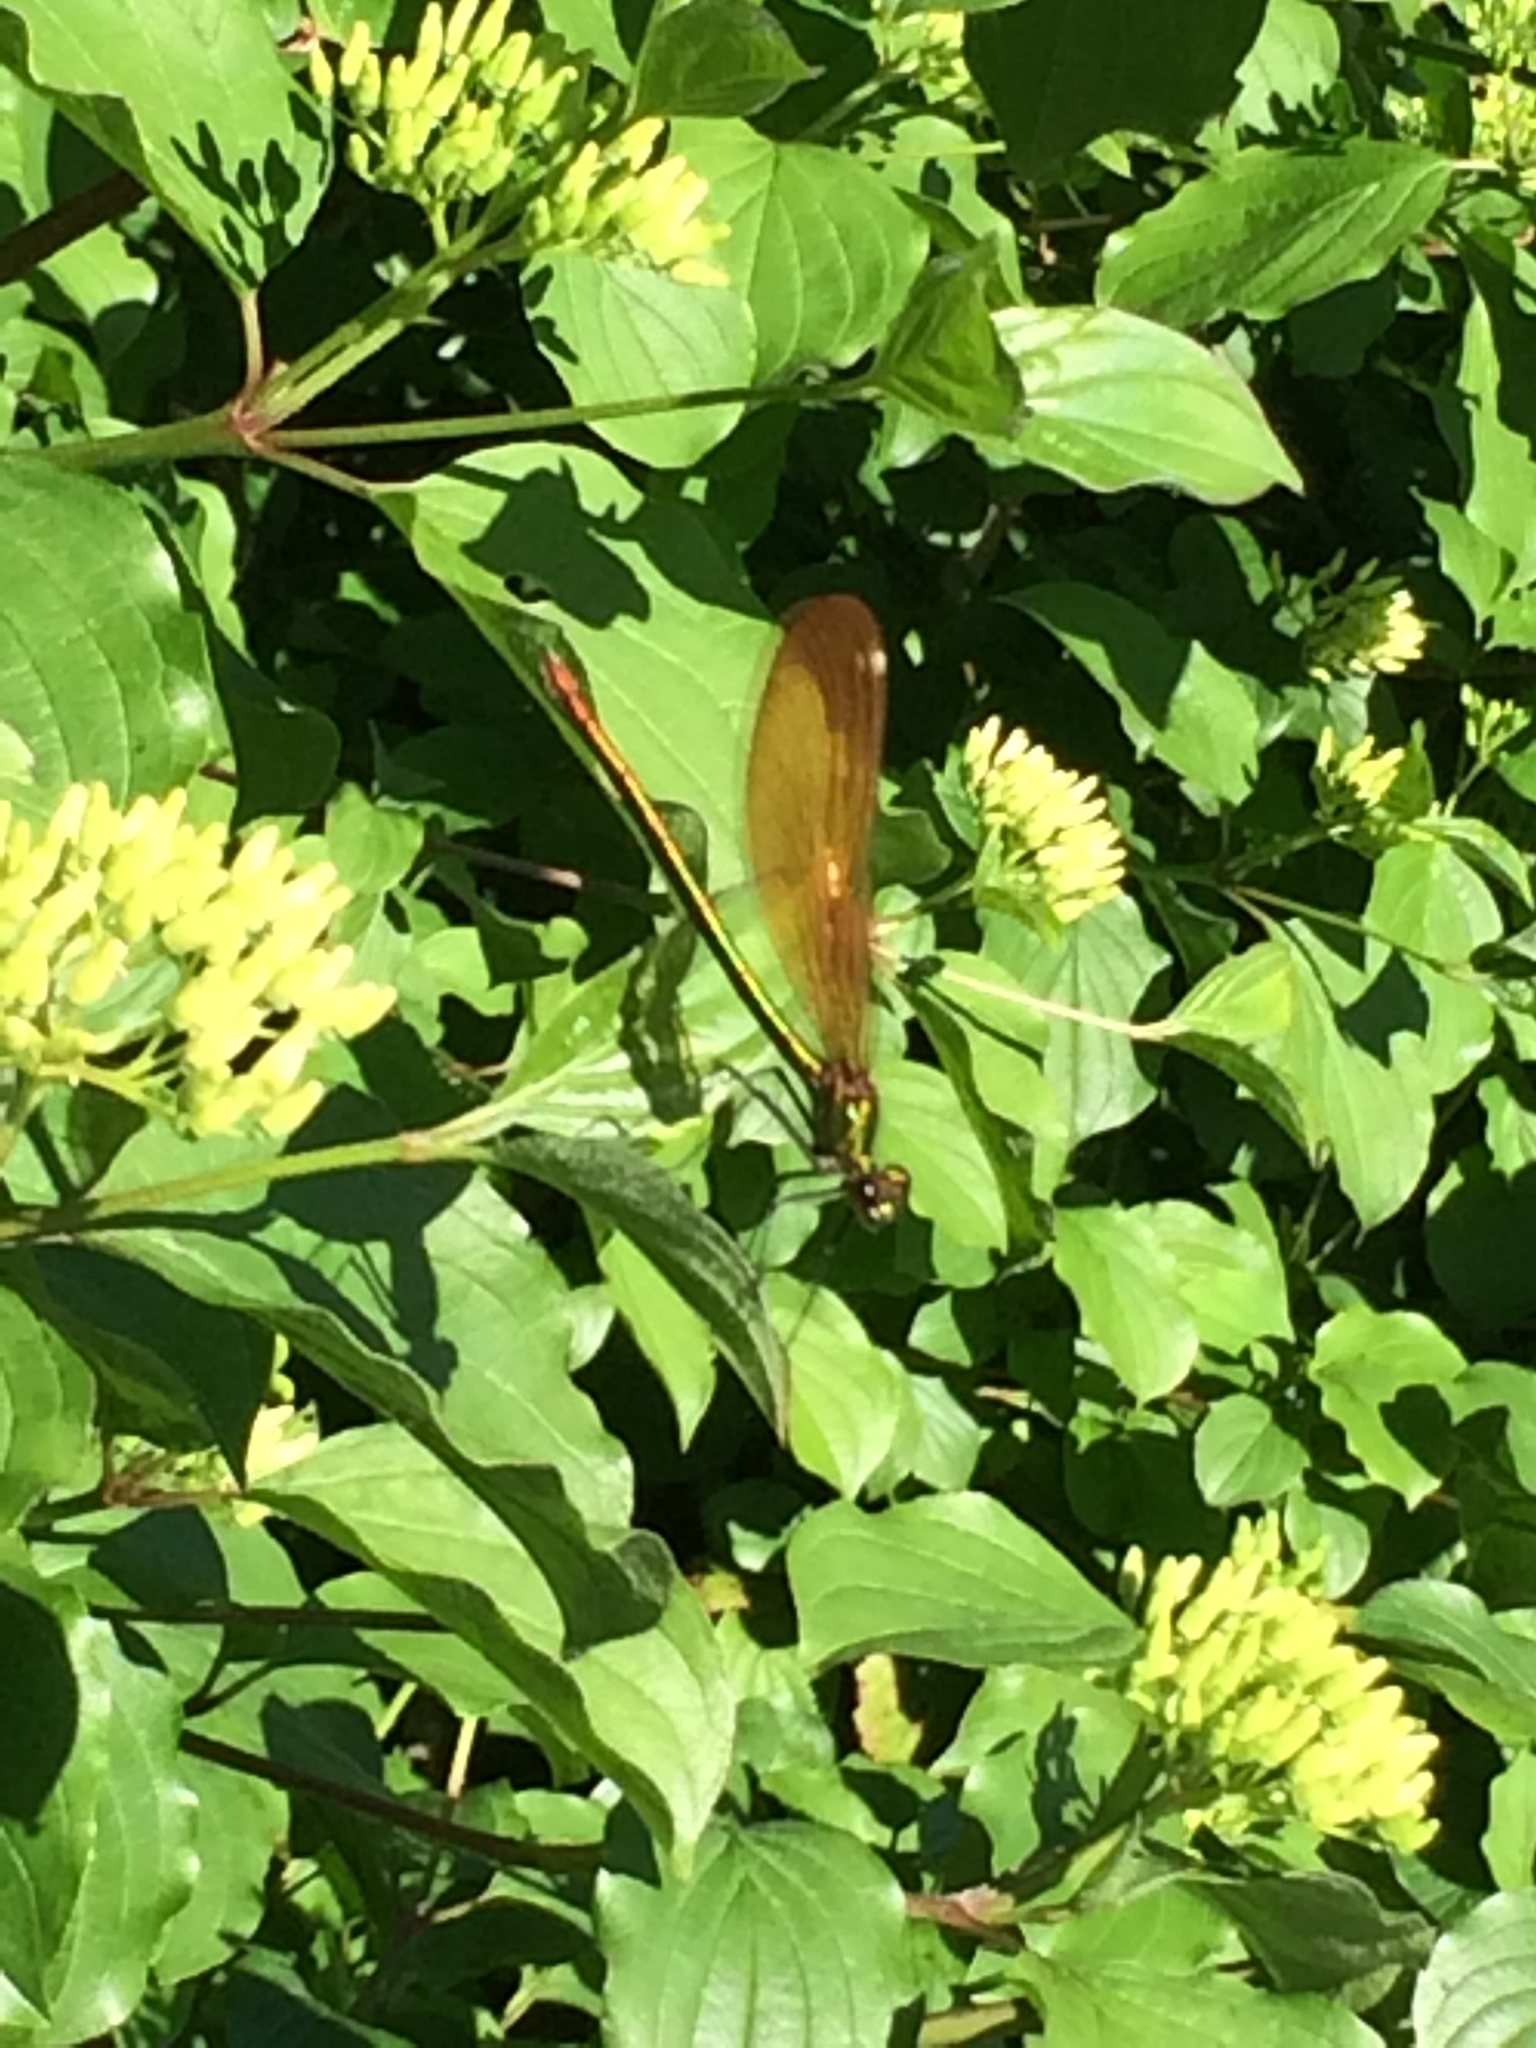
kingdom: Animalia
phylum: Arthropoda
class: Insecta
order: Odonata
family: Calopterygidae
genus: Calopteryx
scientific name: Calopteryx virgo
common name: Beautiful demoiselle
